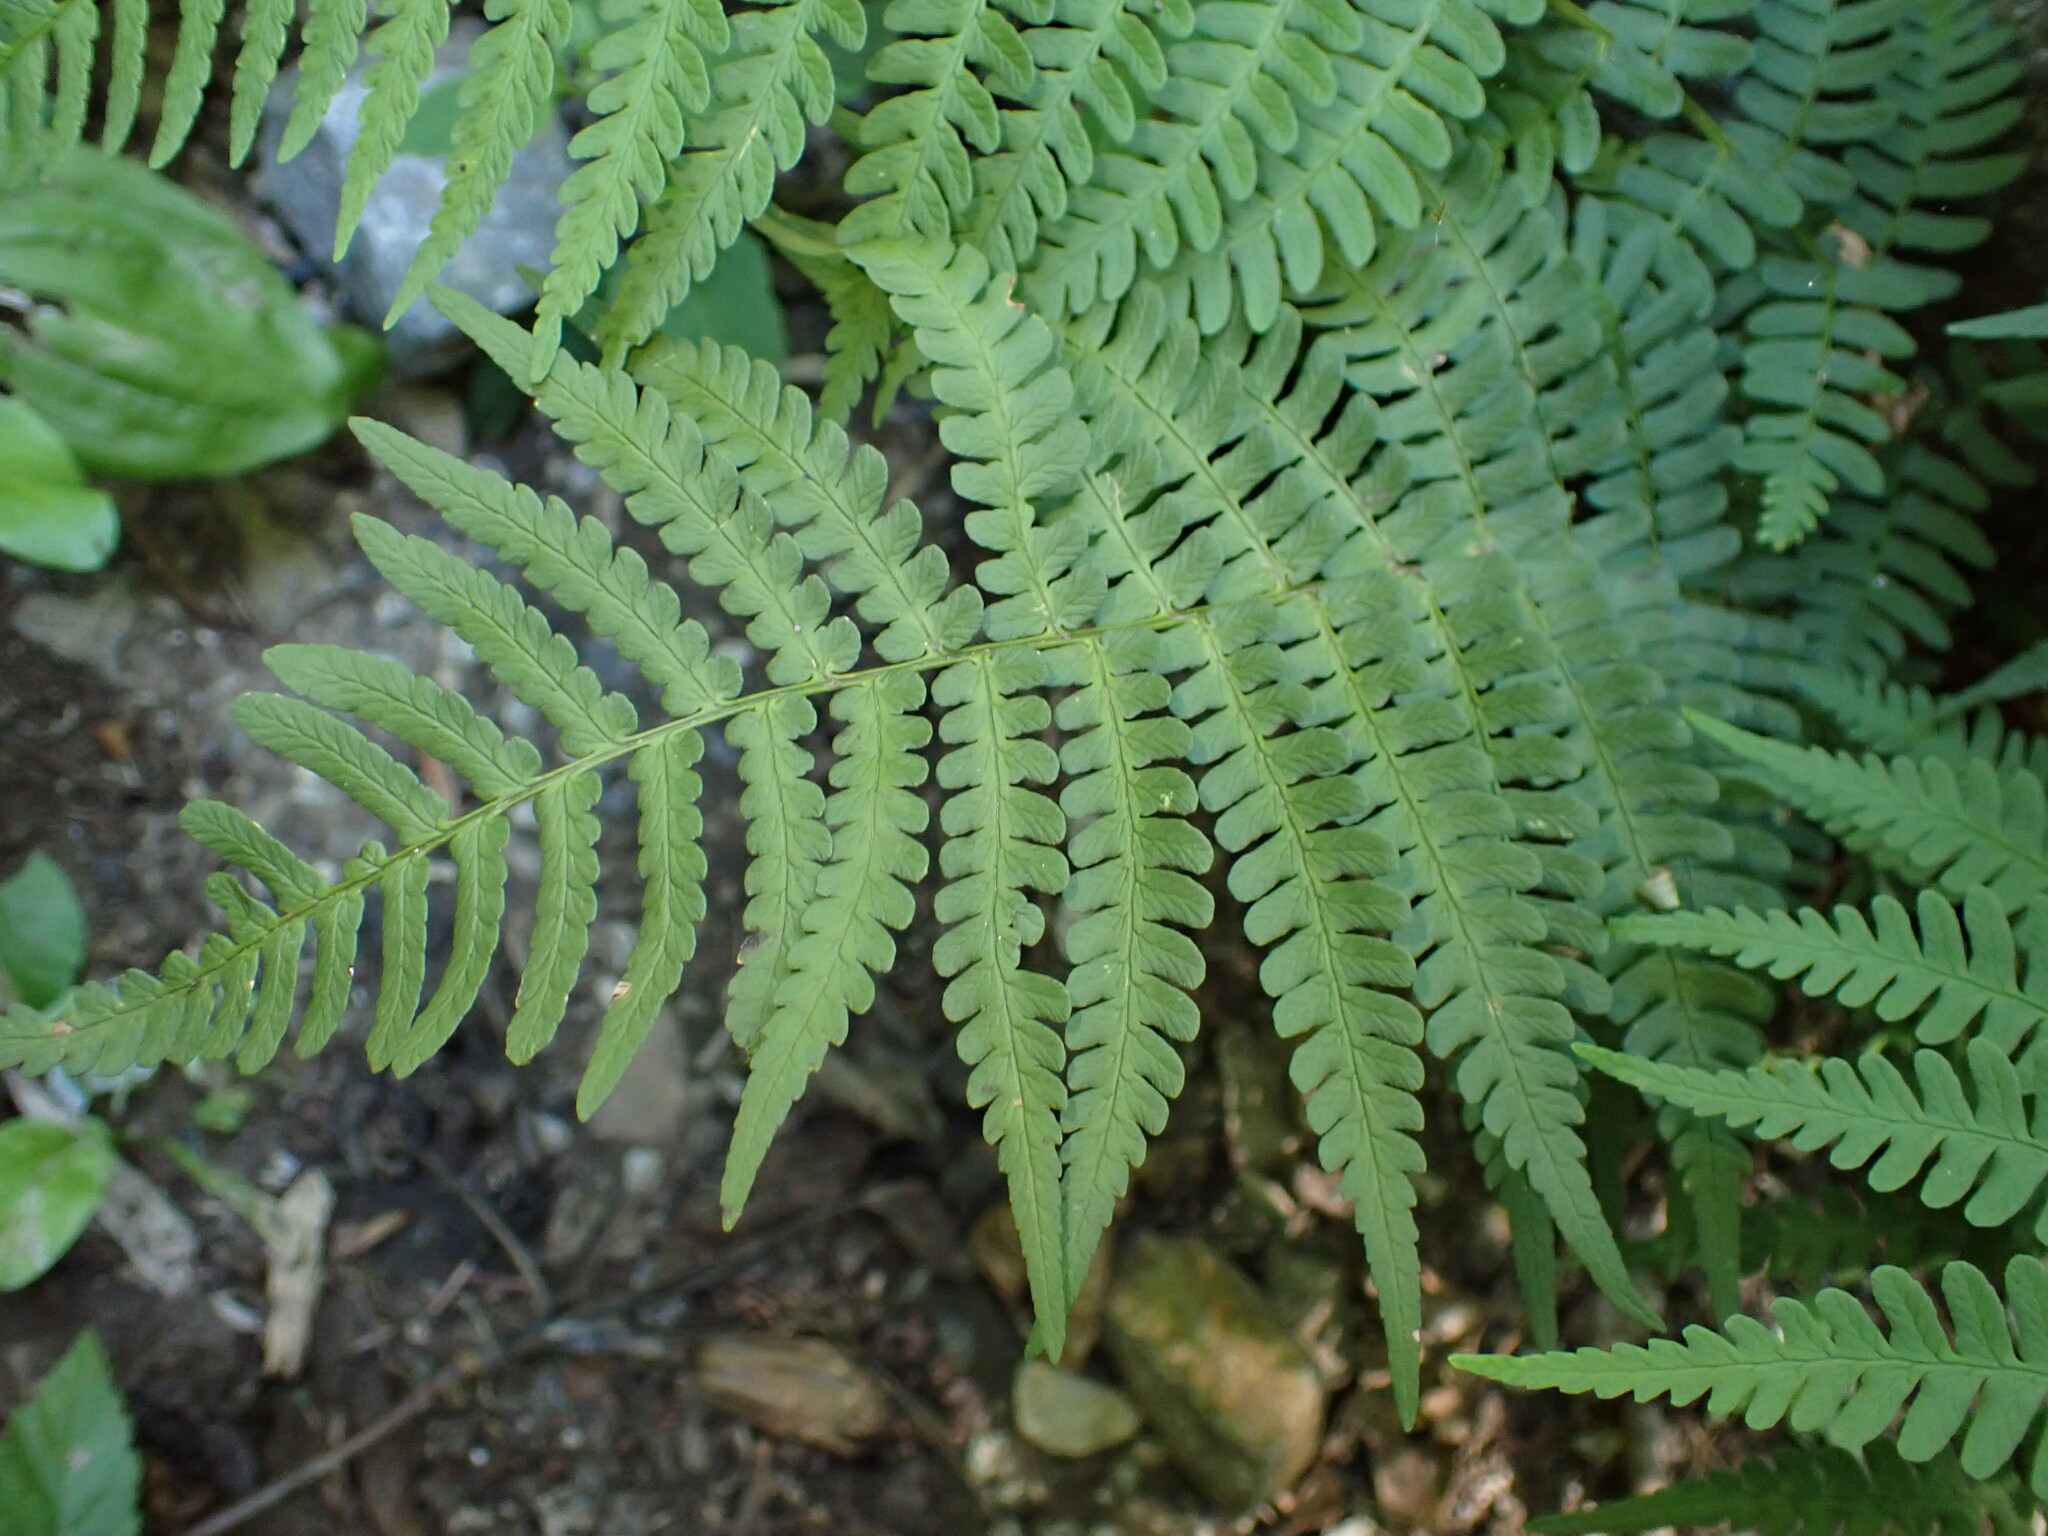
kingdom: Plantae
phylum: Tracheophyta
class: Polypodiopsida
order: Polypodiales
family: Dryopteridaceae
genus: Dryopteris
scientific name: Dryopteris marginalis
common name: Marginal wood fern
